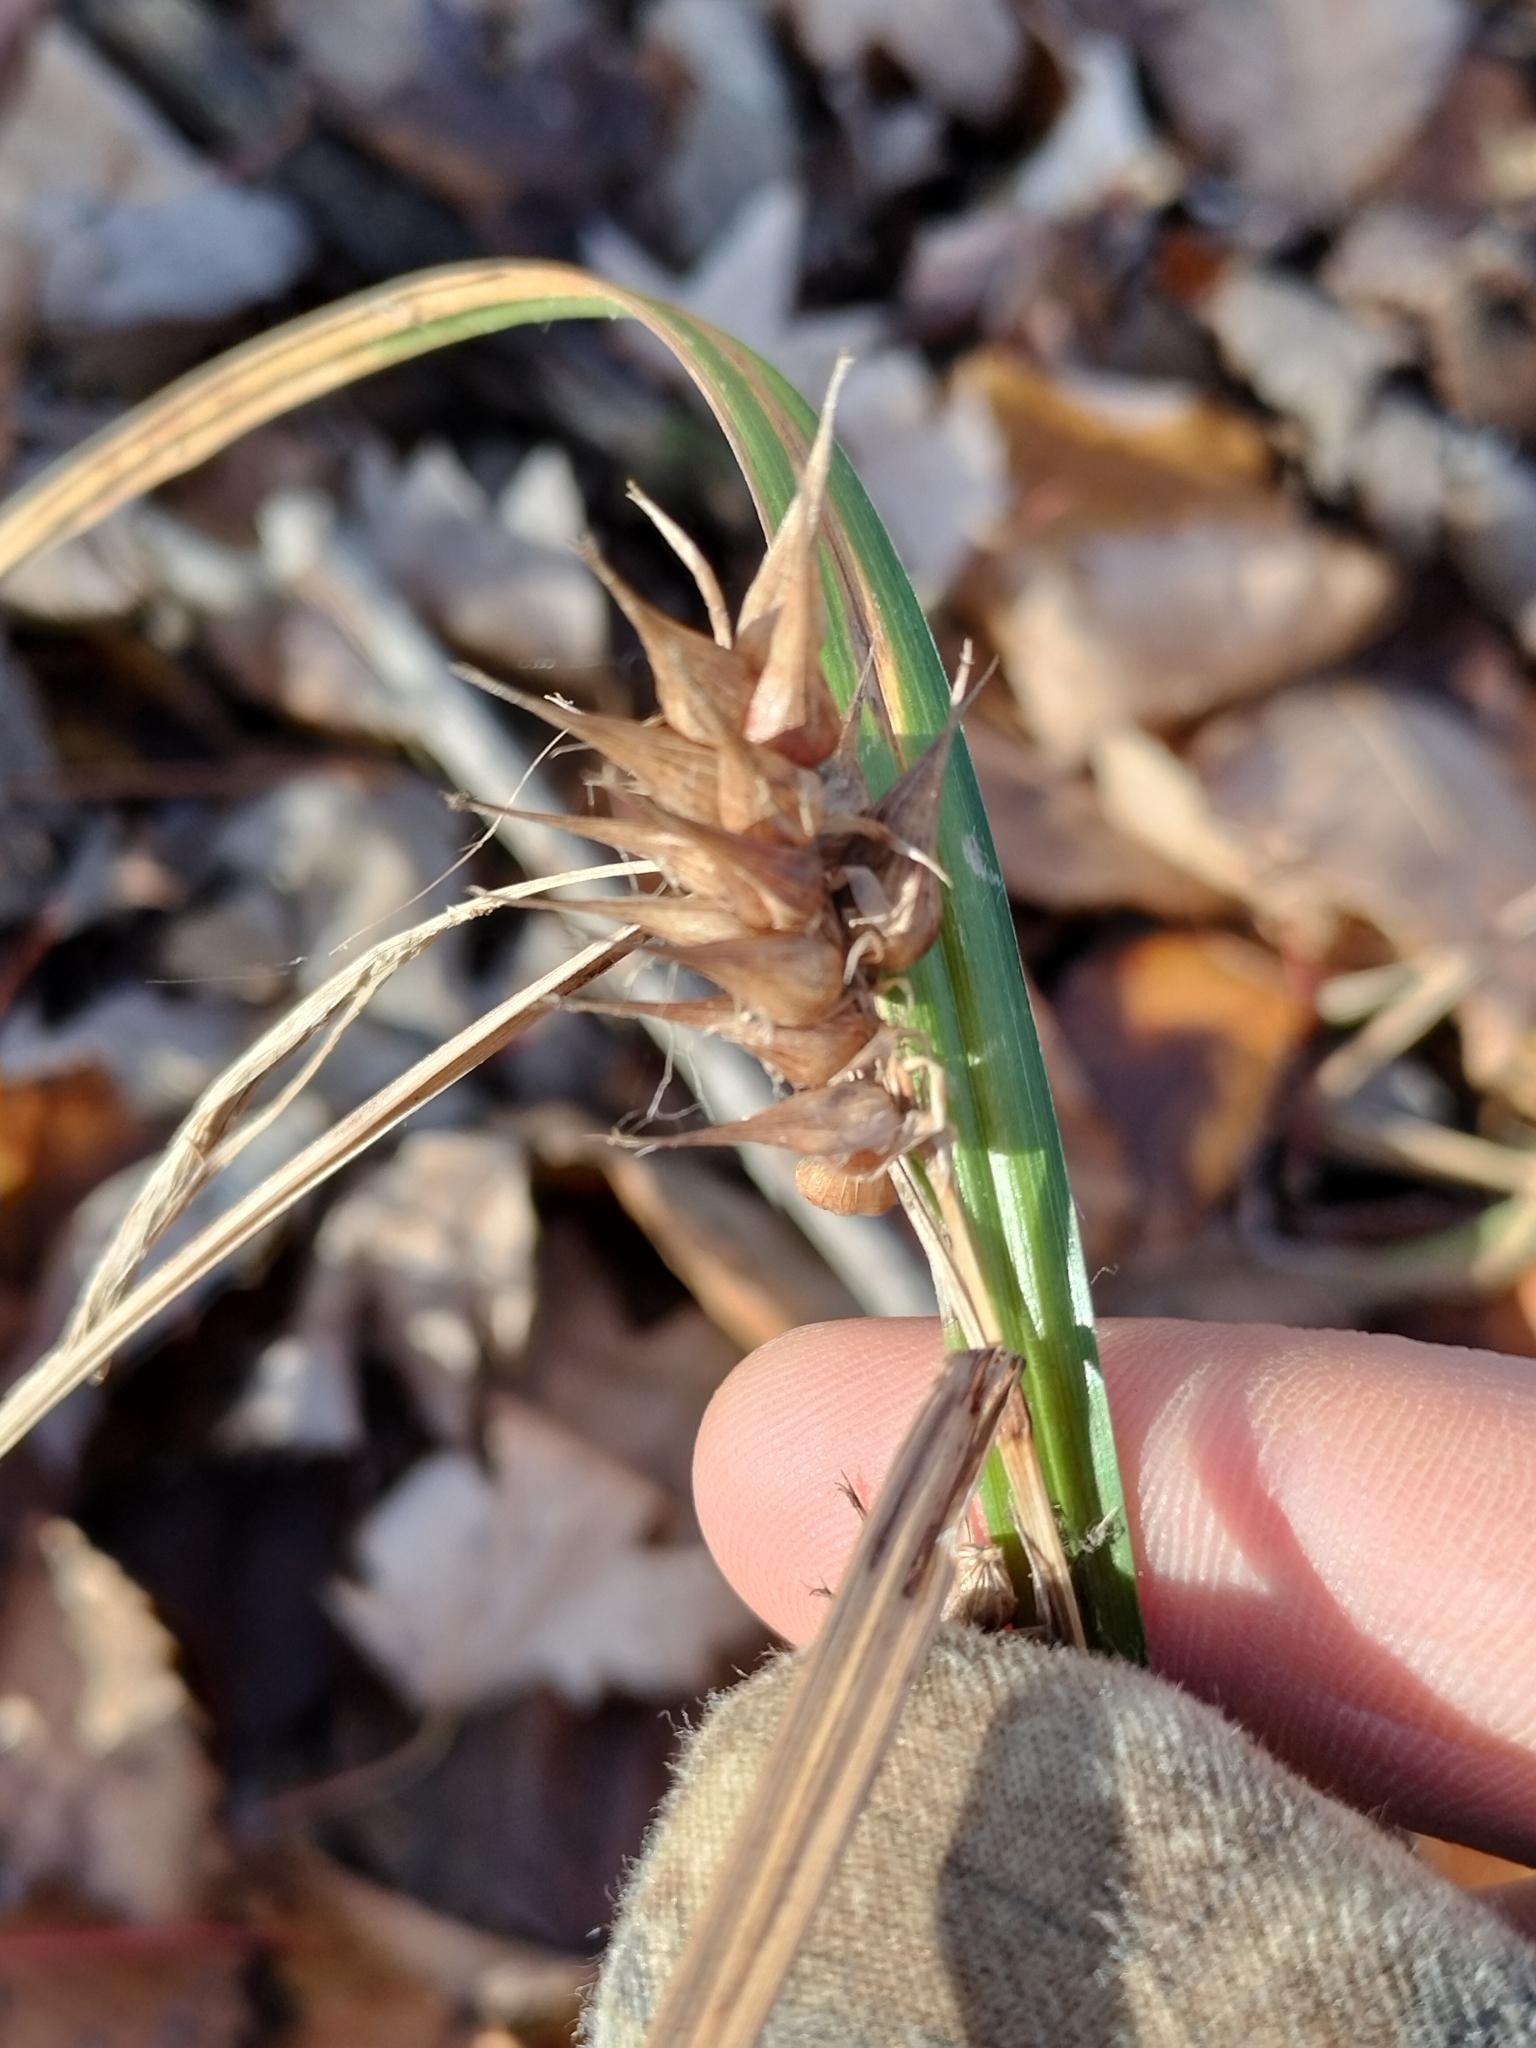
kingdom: Plantae
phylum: Tracheophyta
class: Liliopsida
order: Poales
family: Cyperaceae
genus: Carex
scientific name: Carex lupulina
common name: Hop sedge
